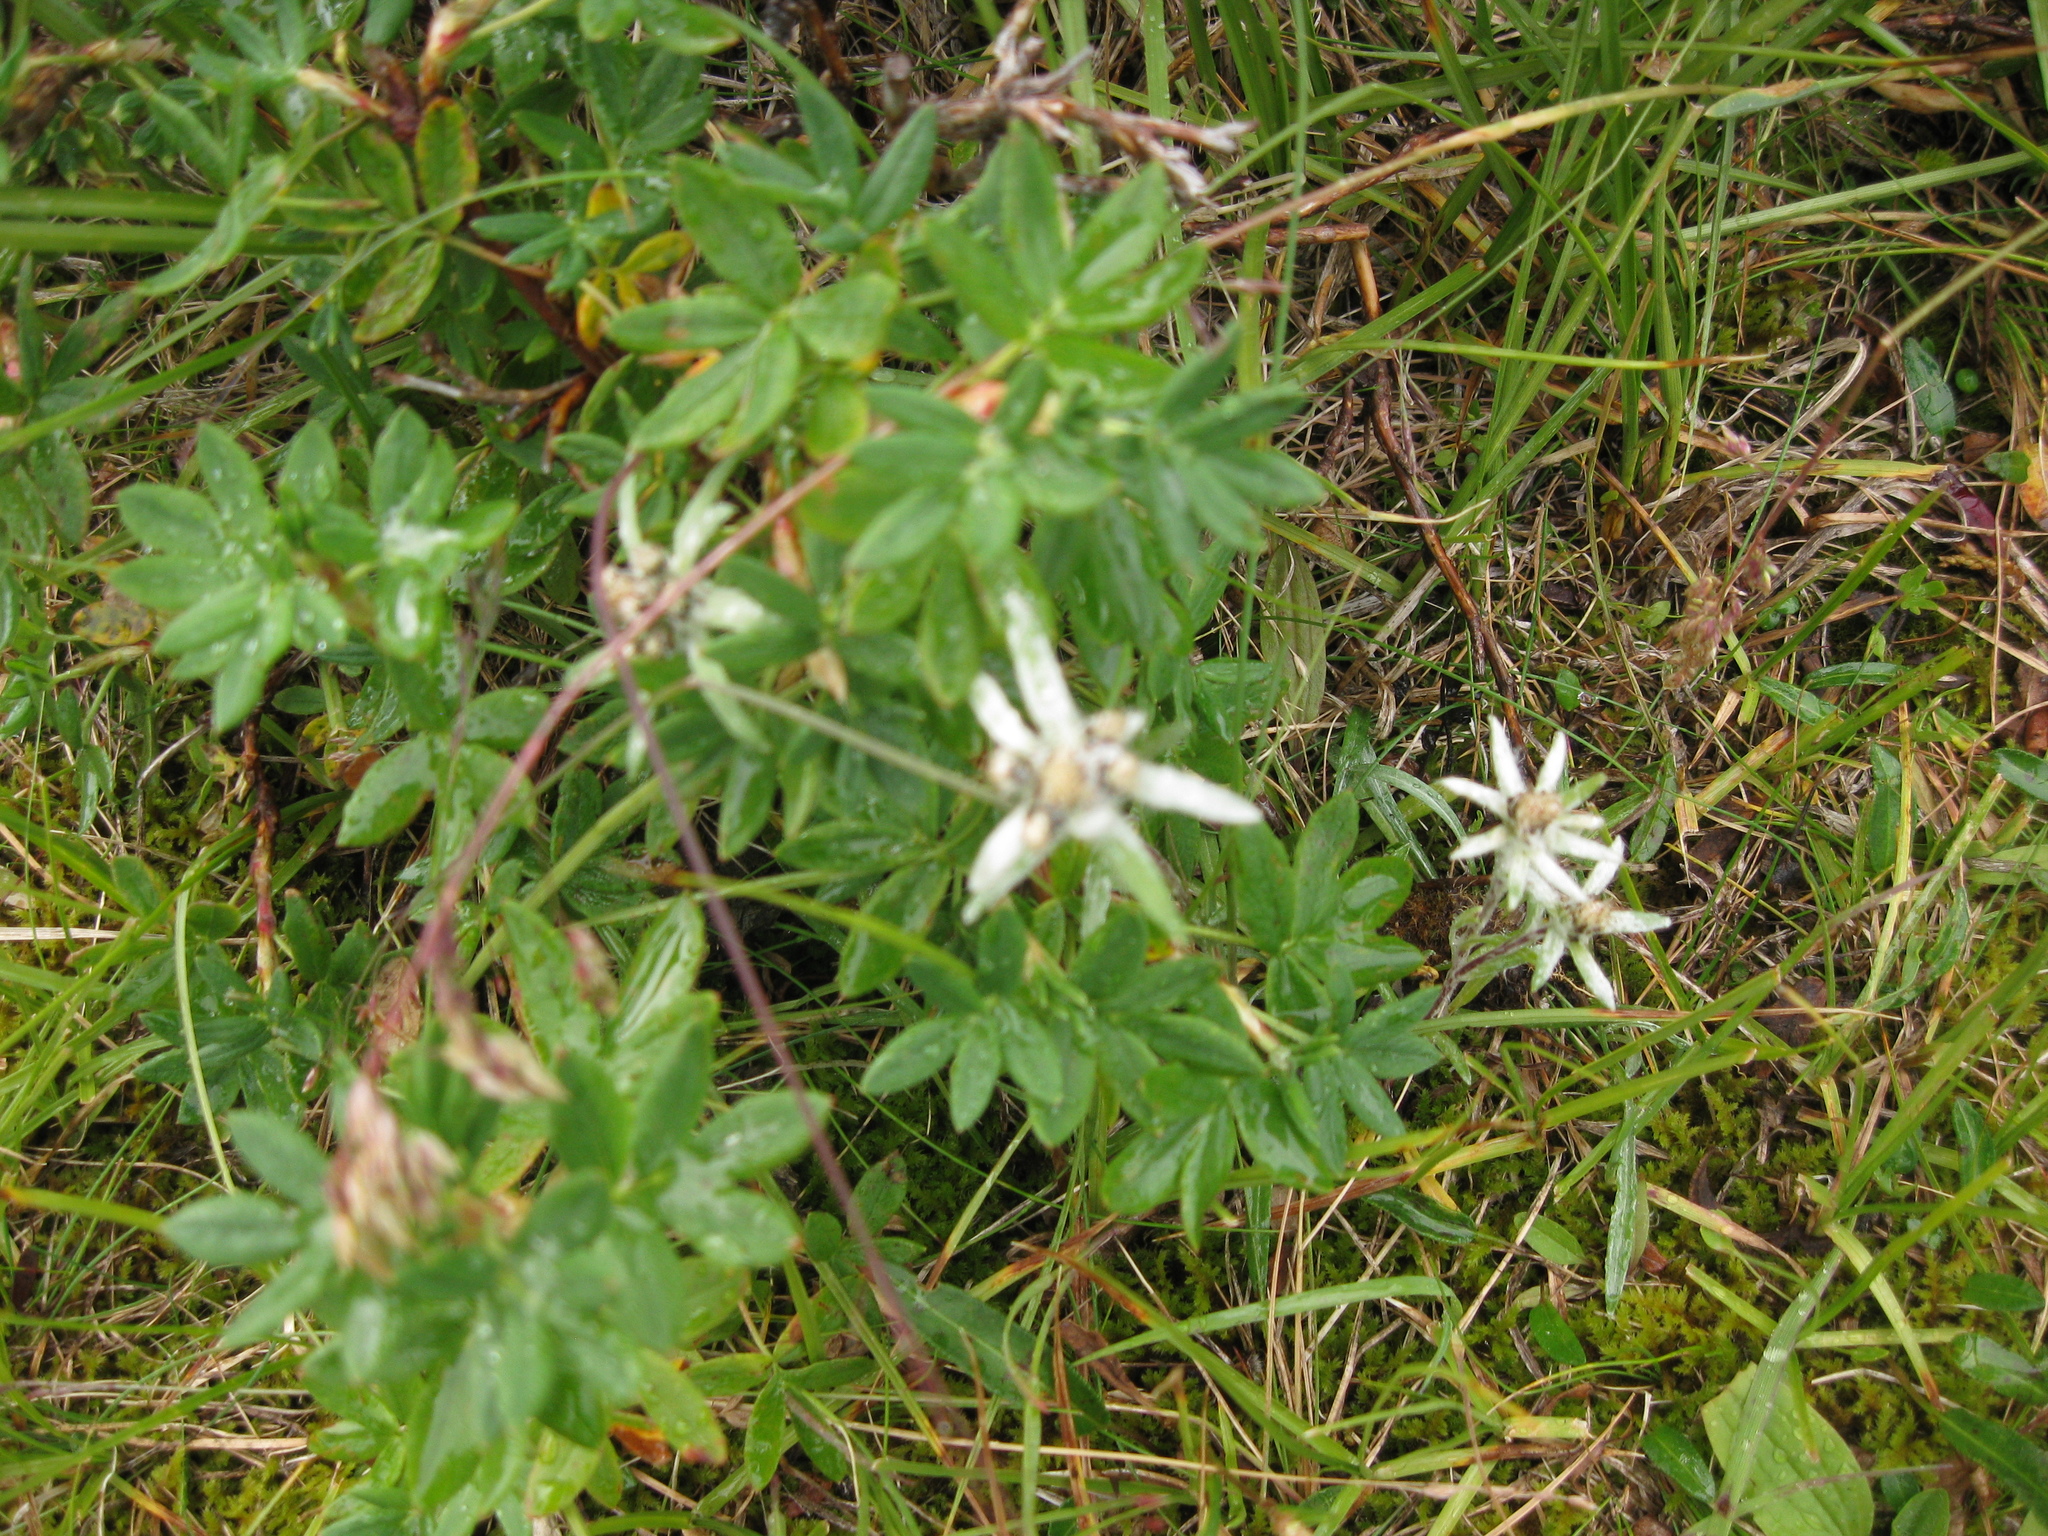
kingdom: Plantae
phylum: Tracheophyta
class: Magnoliopsida
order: Asterales
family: Asteraceae
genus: Leontopodium
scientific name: Leontopodium campestre
